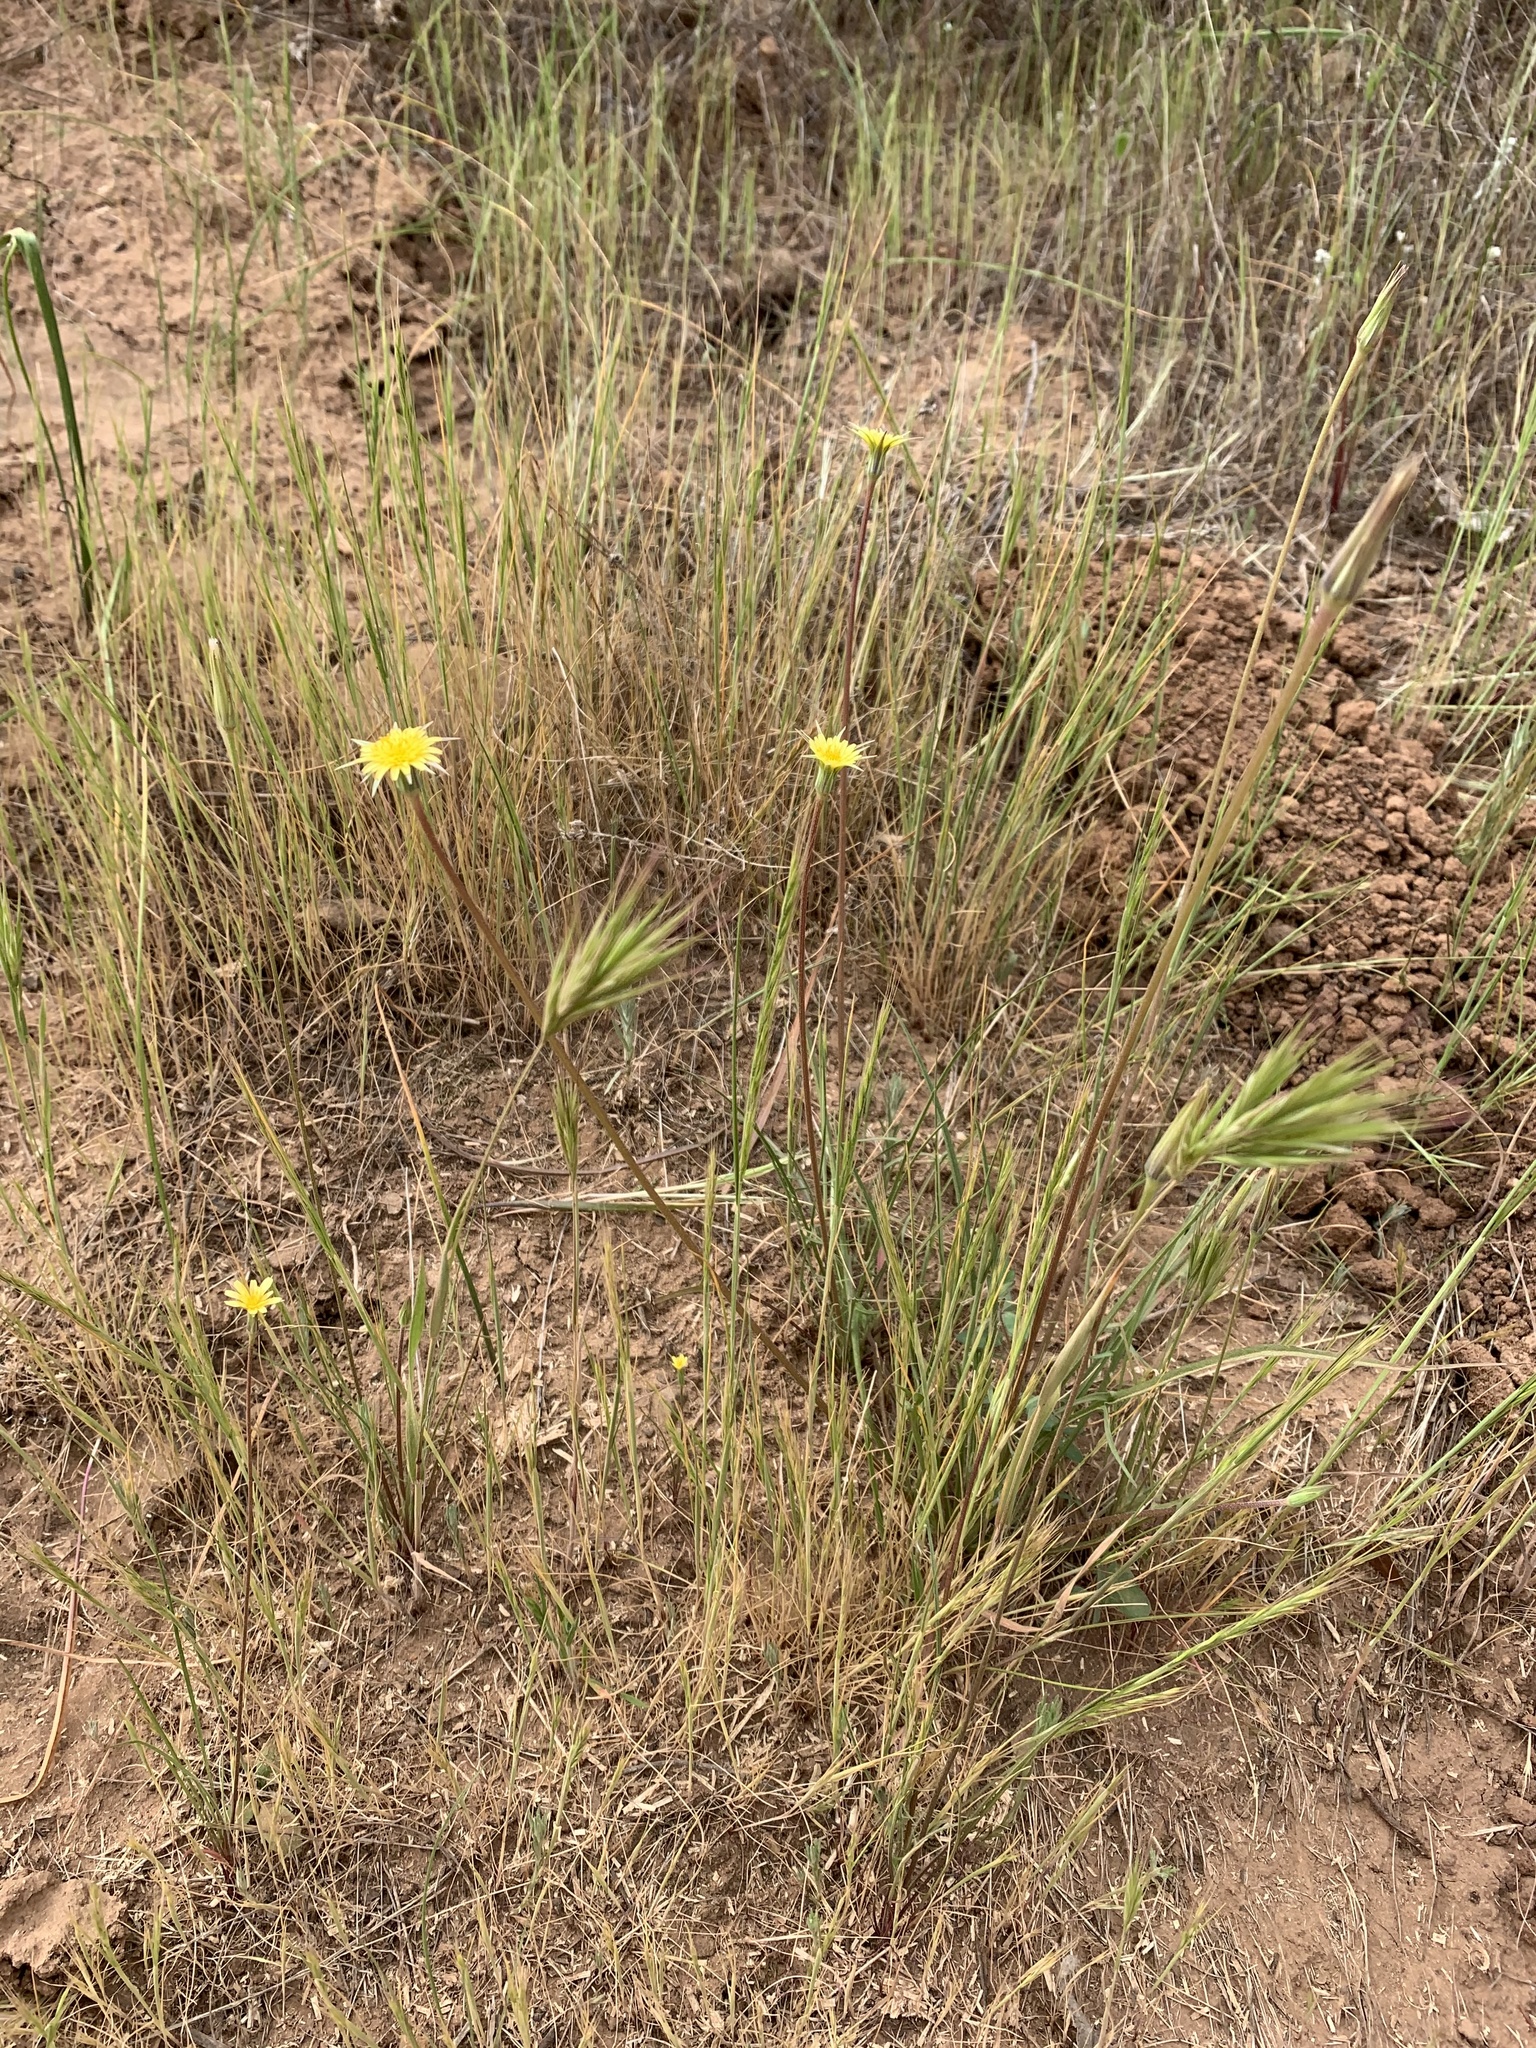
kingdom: Plantae
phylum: Tracheophyta
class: Magnoliopsida
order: Asterales
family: Asteraceae
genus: Microseris
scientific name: Microseris lindleyi
